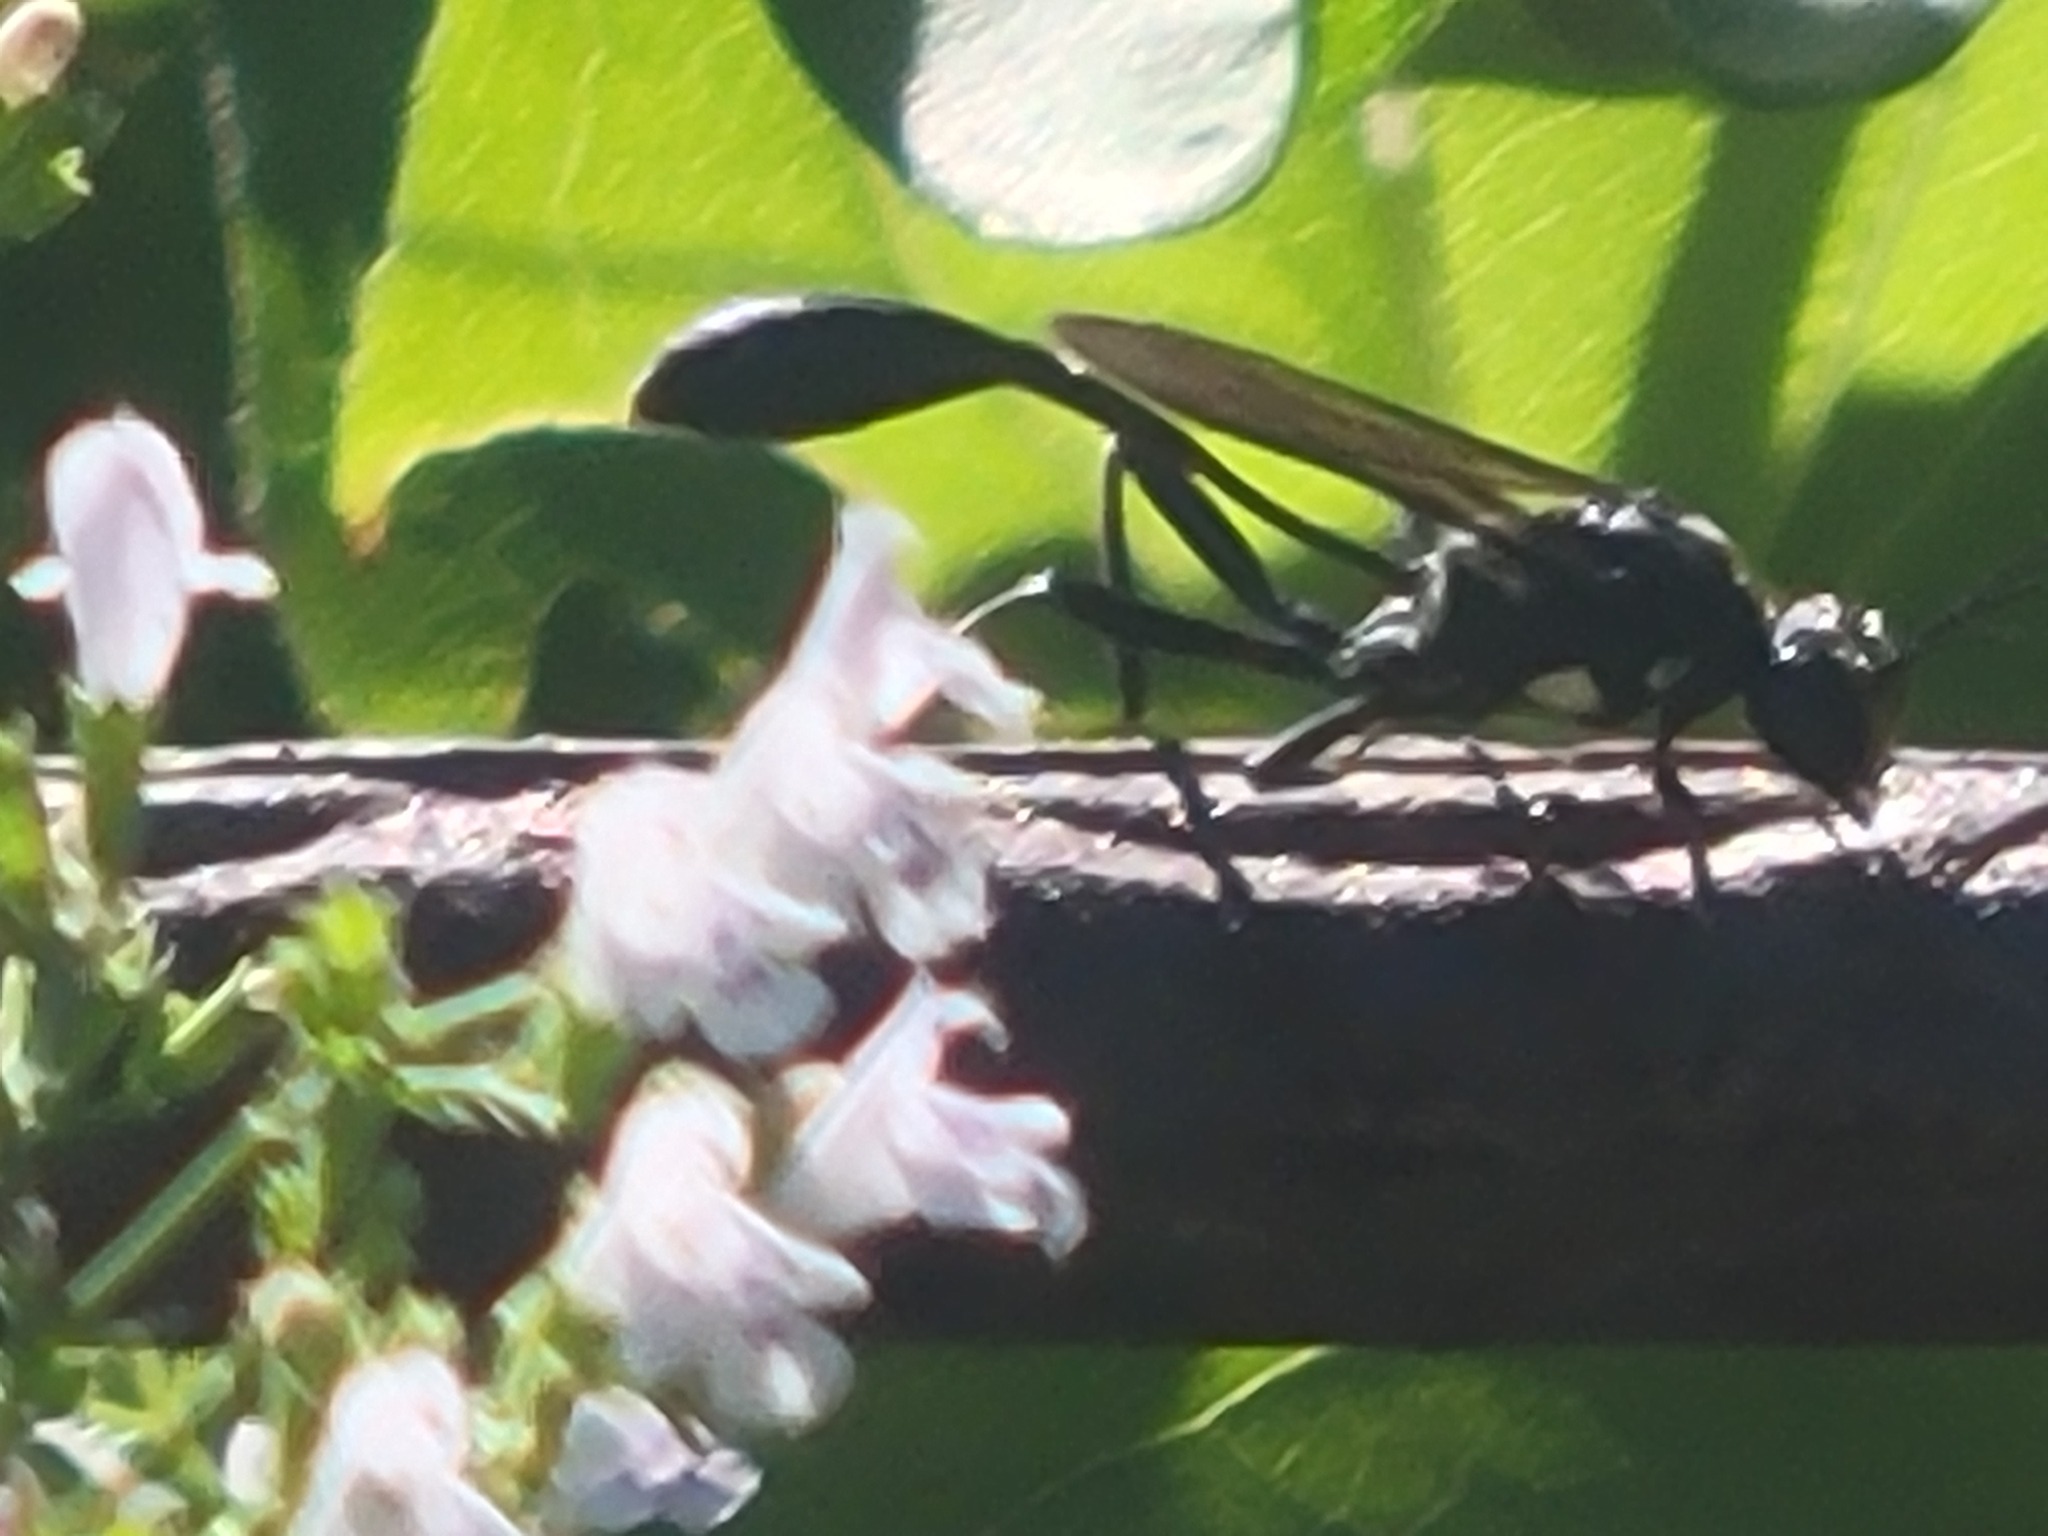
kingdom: Animalia
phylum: Arthropoda
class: Insecta
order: Hymenoptera
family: Sphecidae
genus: Eremnophila
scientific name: Eremnophila aureonotata
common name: Gold-marked thread-waisted wasp
